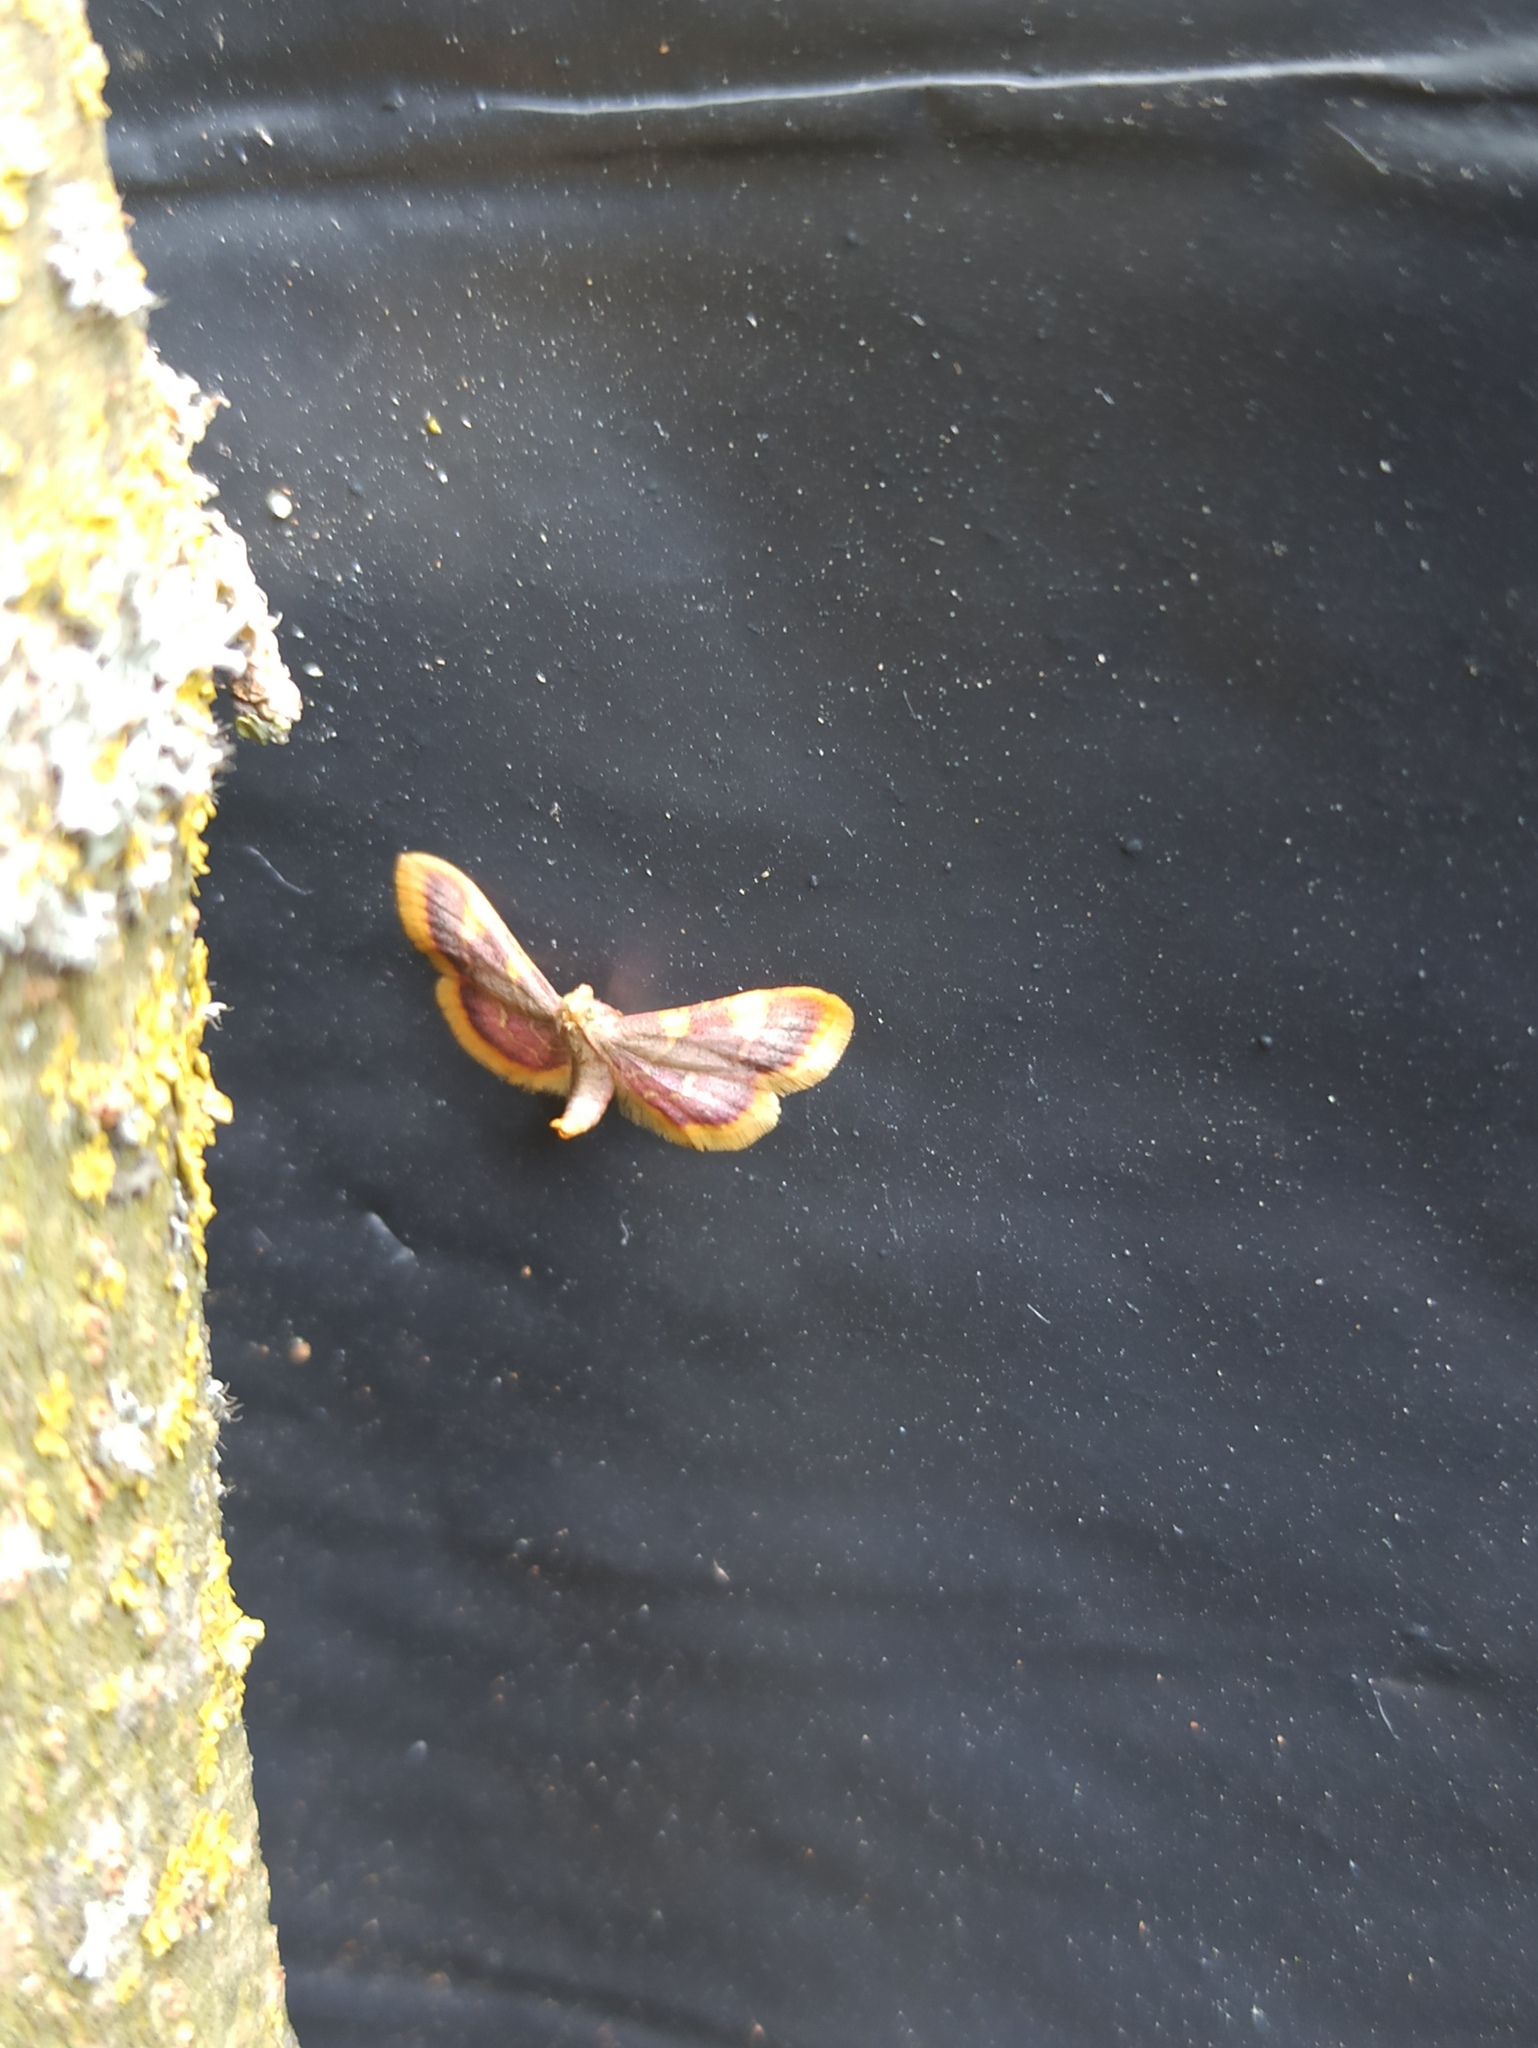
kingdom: Animalia
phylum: Arthropoda
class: Insecta
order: Lepidoptera
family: Pyralidae
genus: Hypsopygia
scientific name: Hypsopygia costalis
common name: Gold triangle
